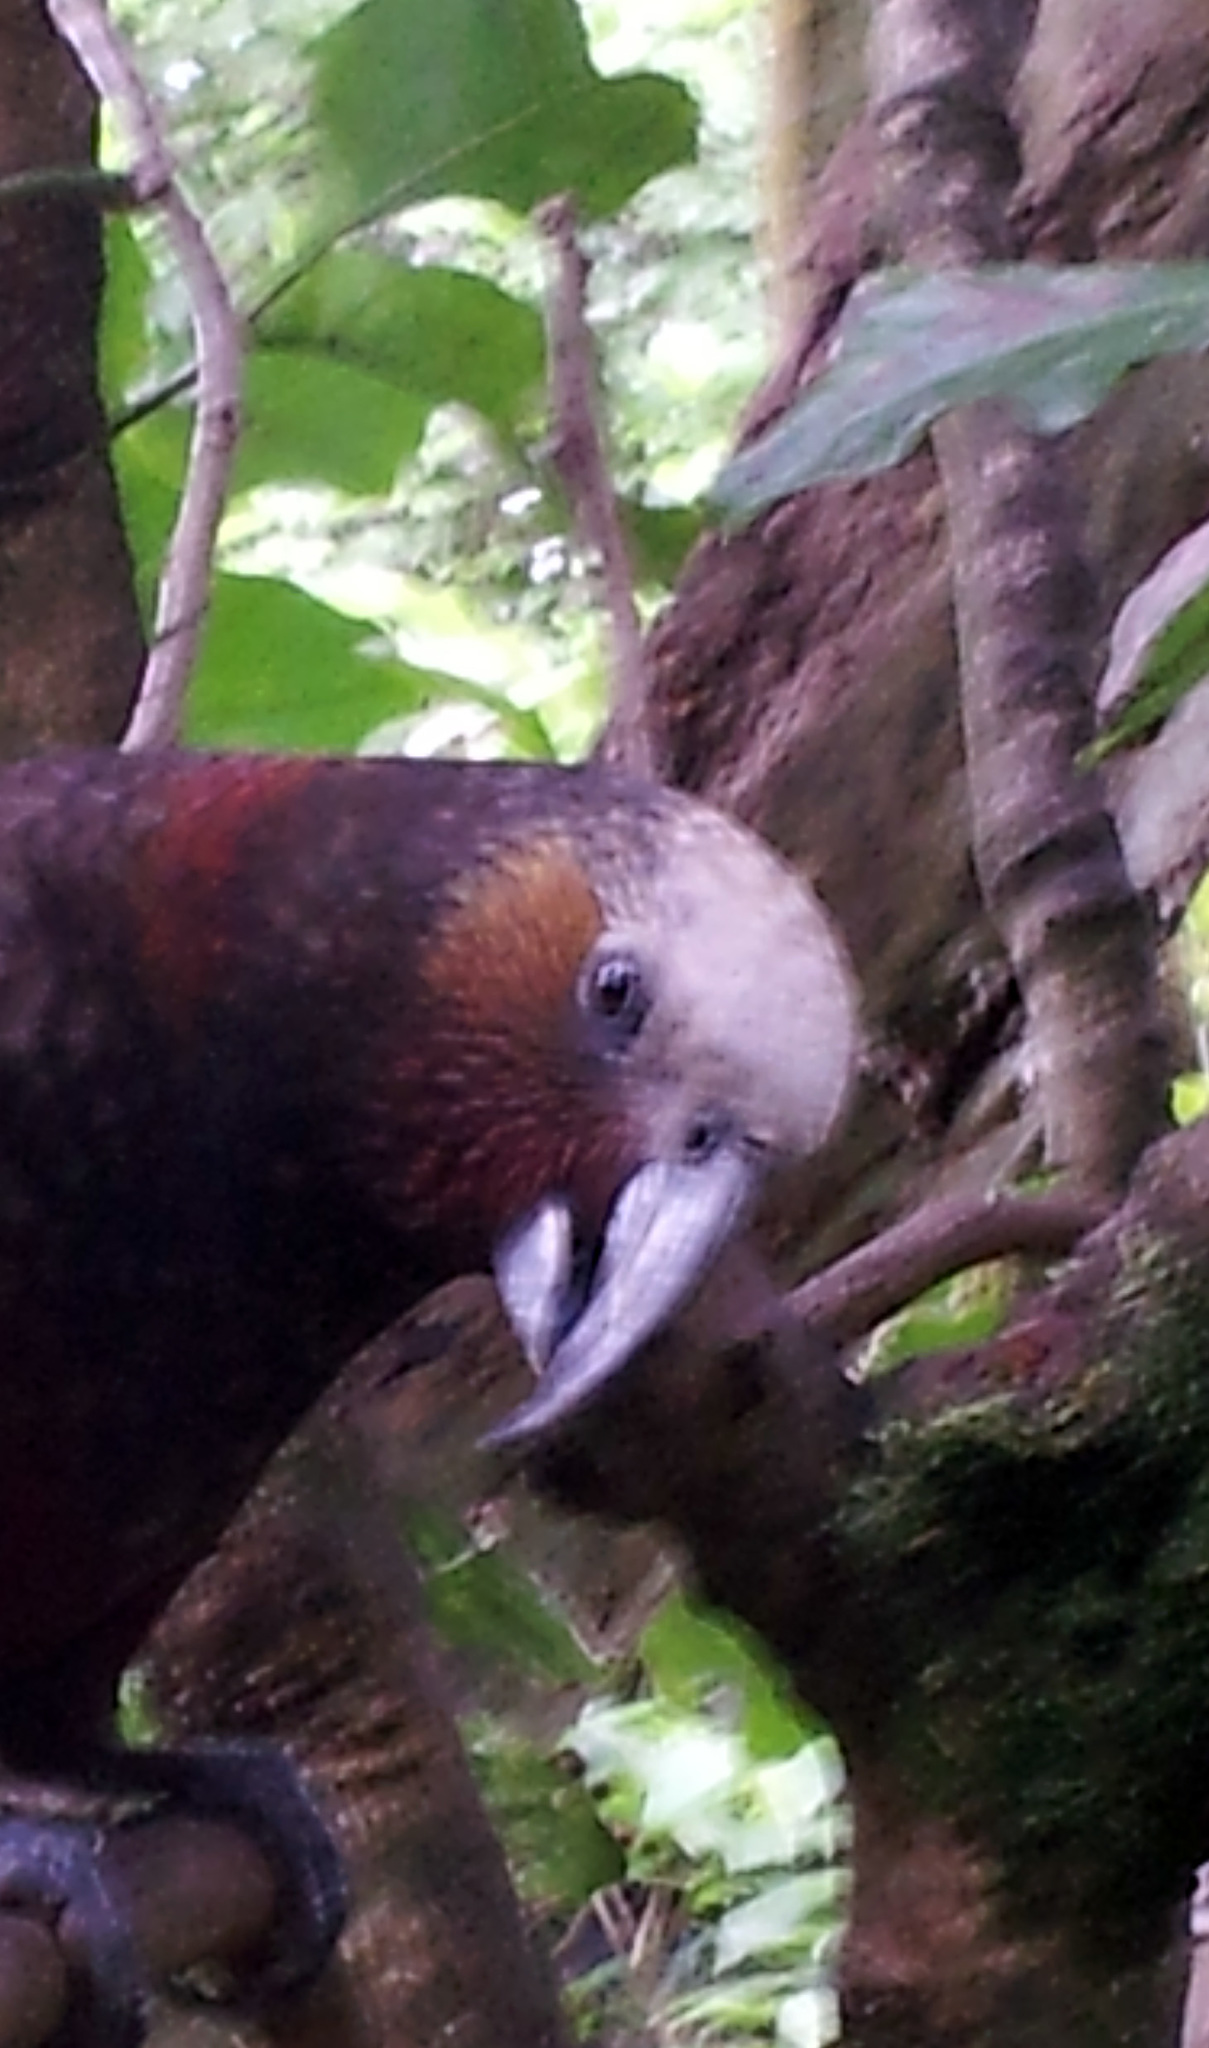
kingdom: Animalia
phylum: Chordata
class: Aves
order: Psittaciformes
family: Psittacidae
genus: Nestor
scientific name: Nestor meridionalis
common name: New zealand kaka
